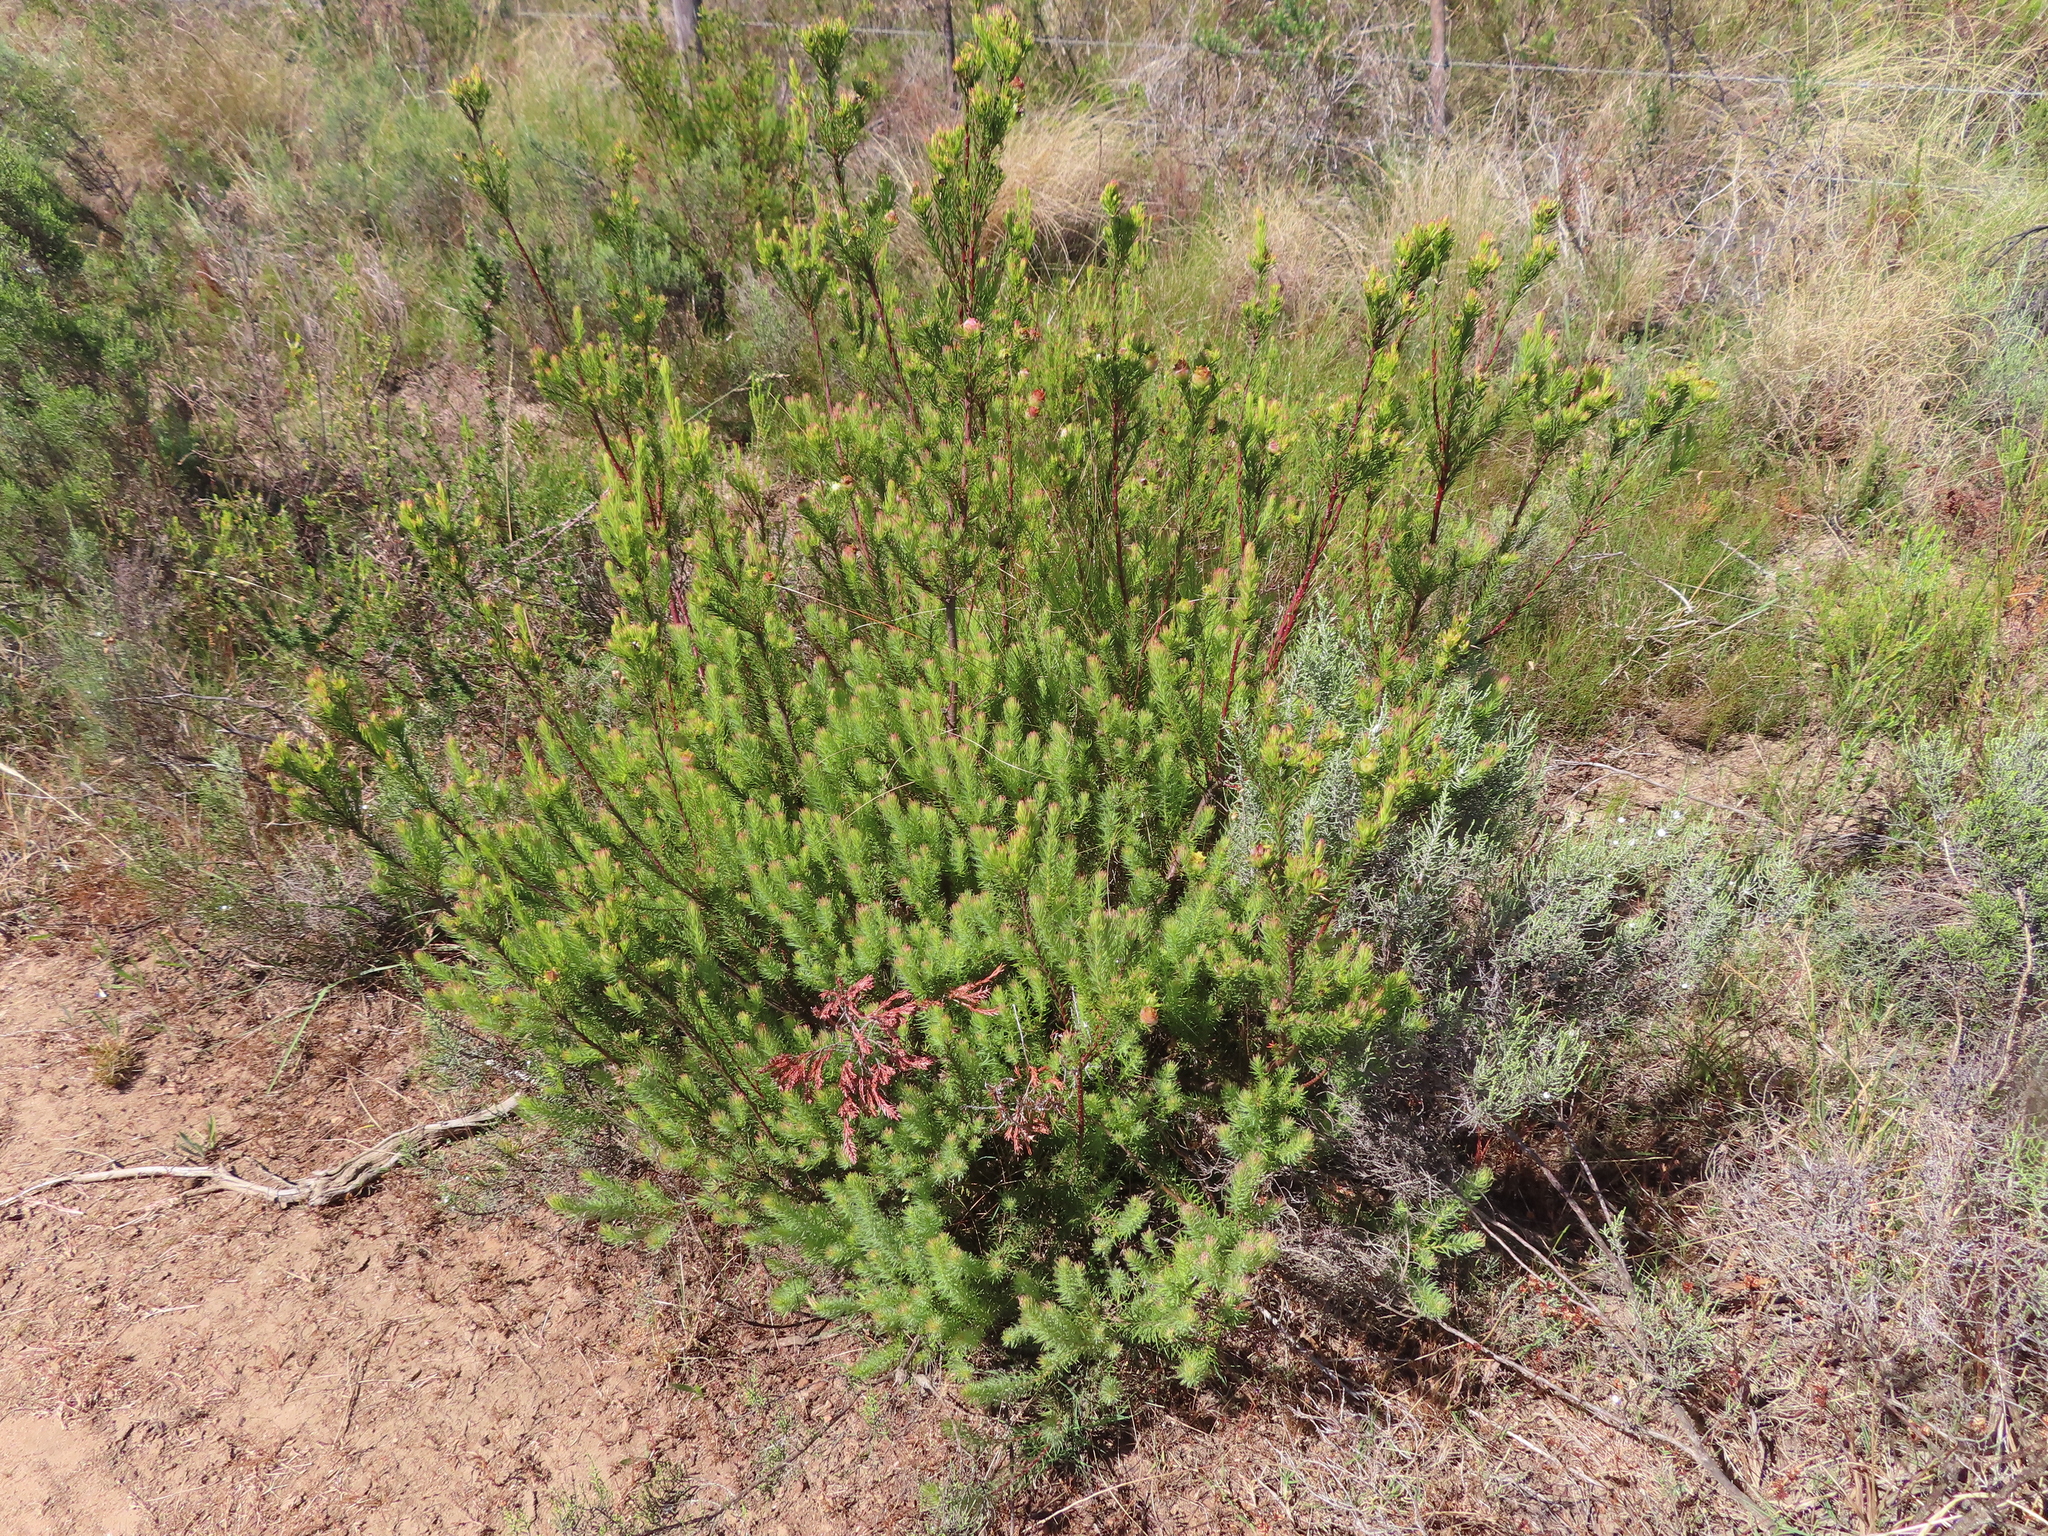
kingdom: Plantae
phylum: Tracheophyta
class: Magnoliopsida
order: Proteales
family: Proteaceae
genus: Leucadendron
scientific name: Leucadendron laxum
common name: Bredasdorp conebush
